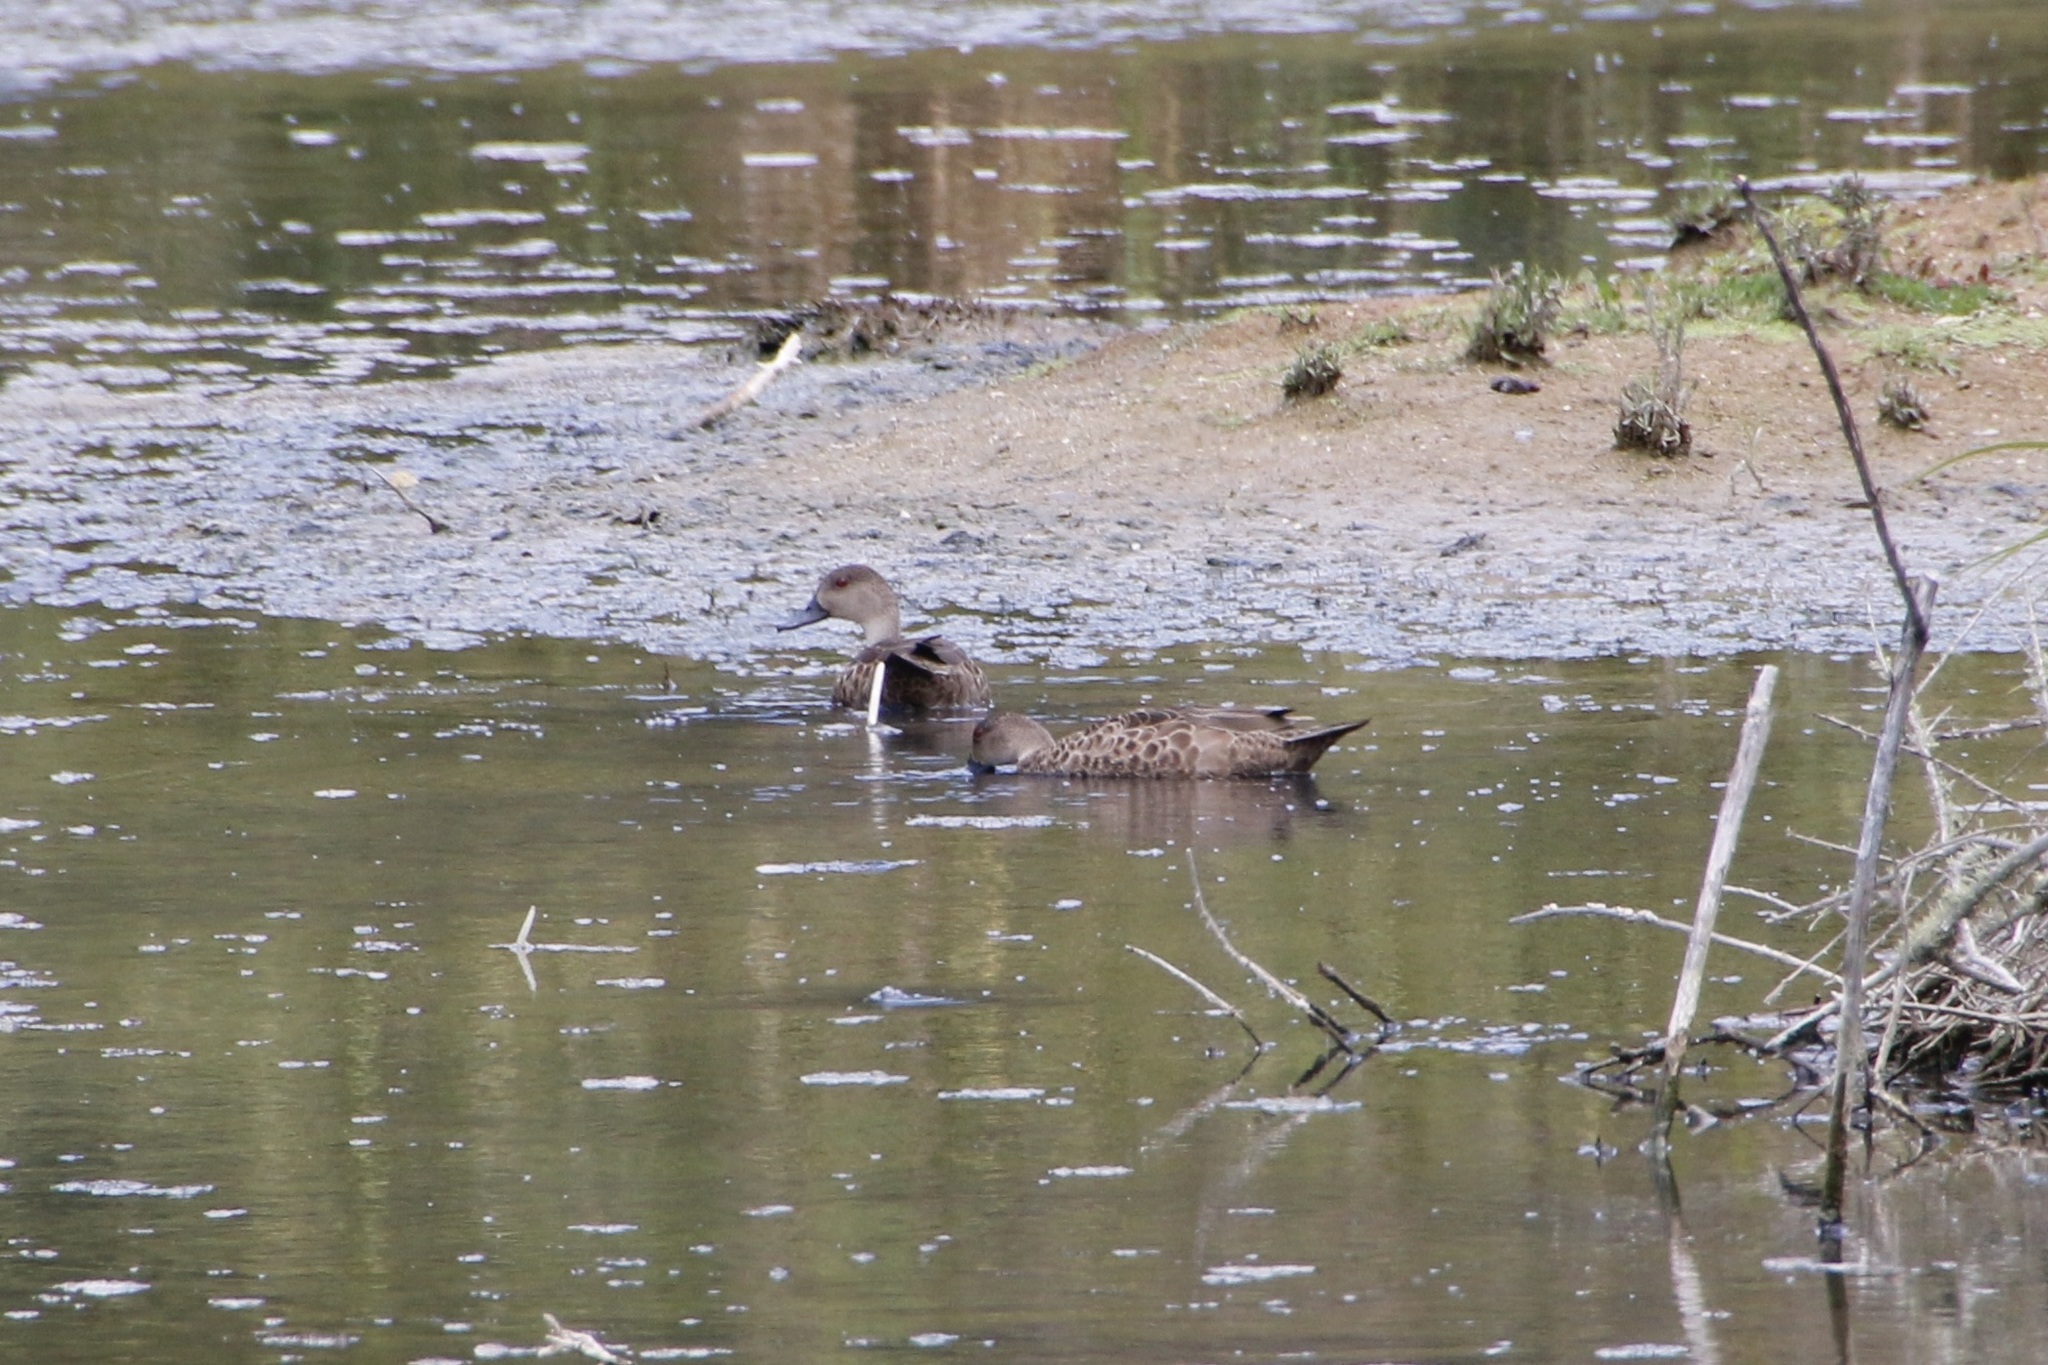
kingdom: Animalia
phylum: Chordata
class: Aves
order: Anseriformes
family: Anatidae
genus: Anas
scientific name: Anas gracilis
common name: Grey teal
